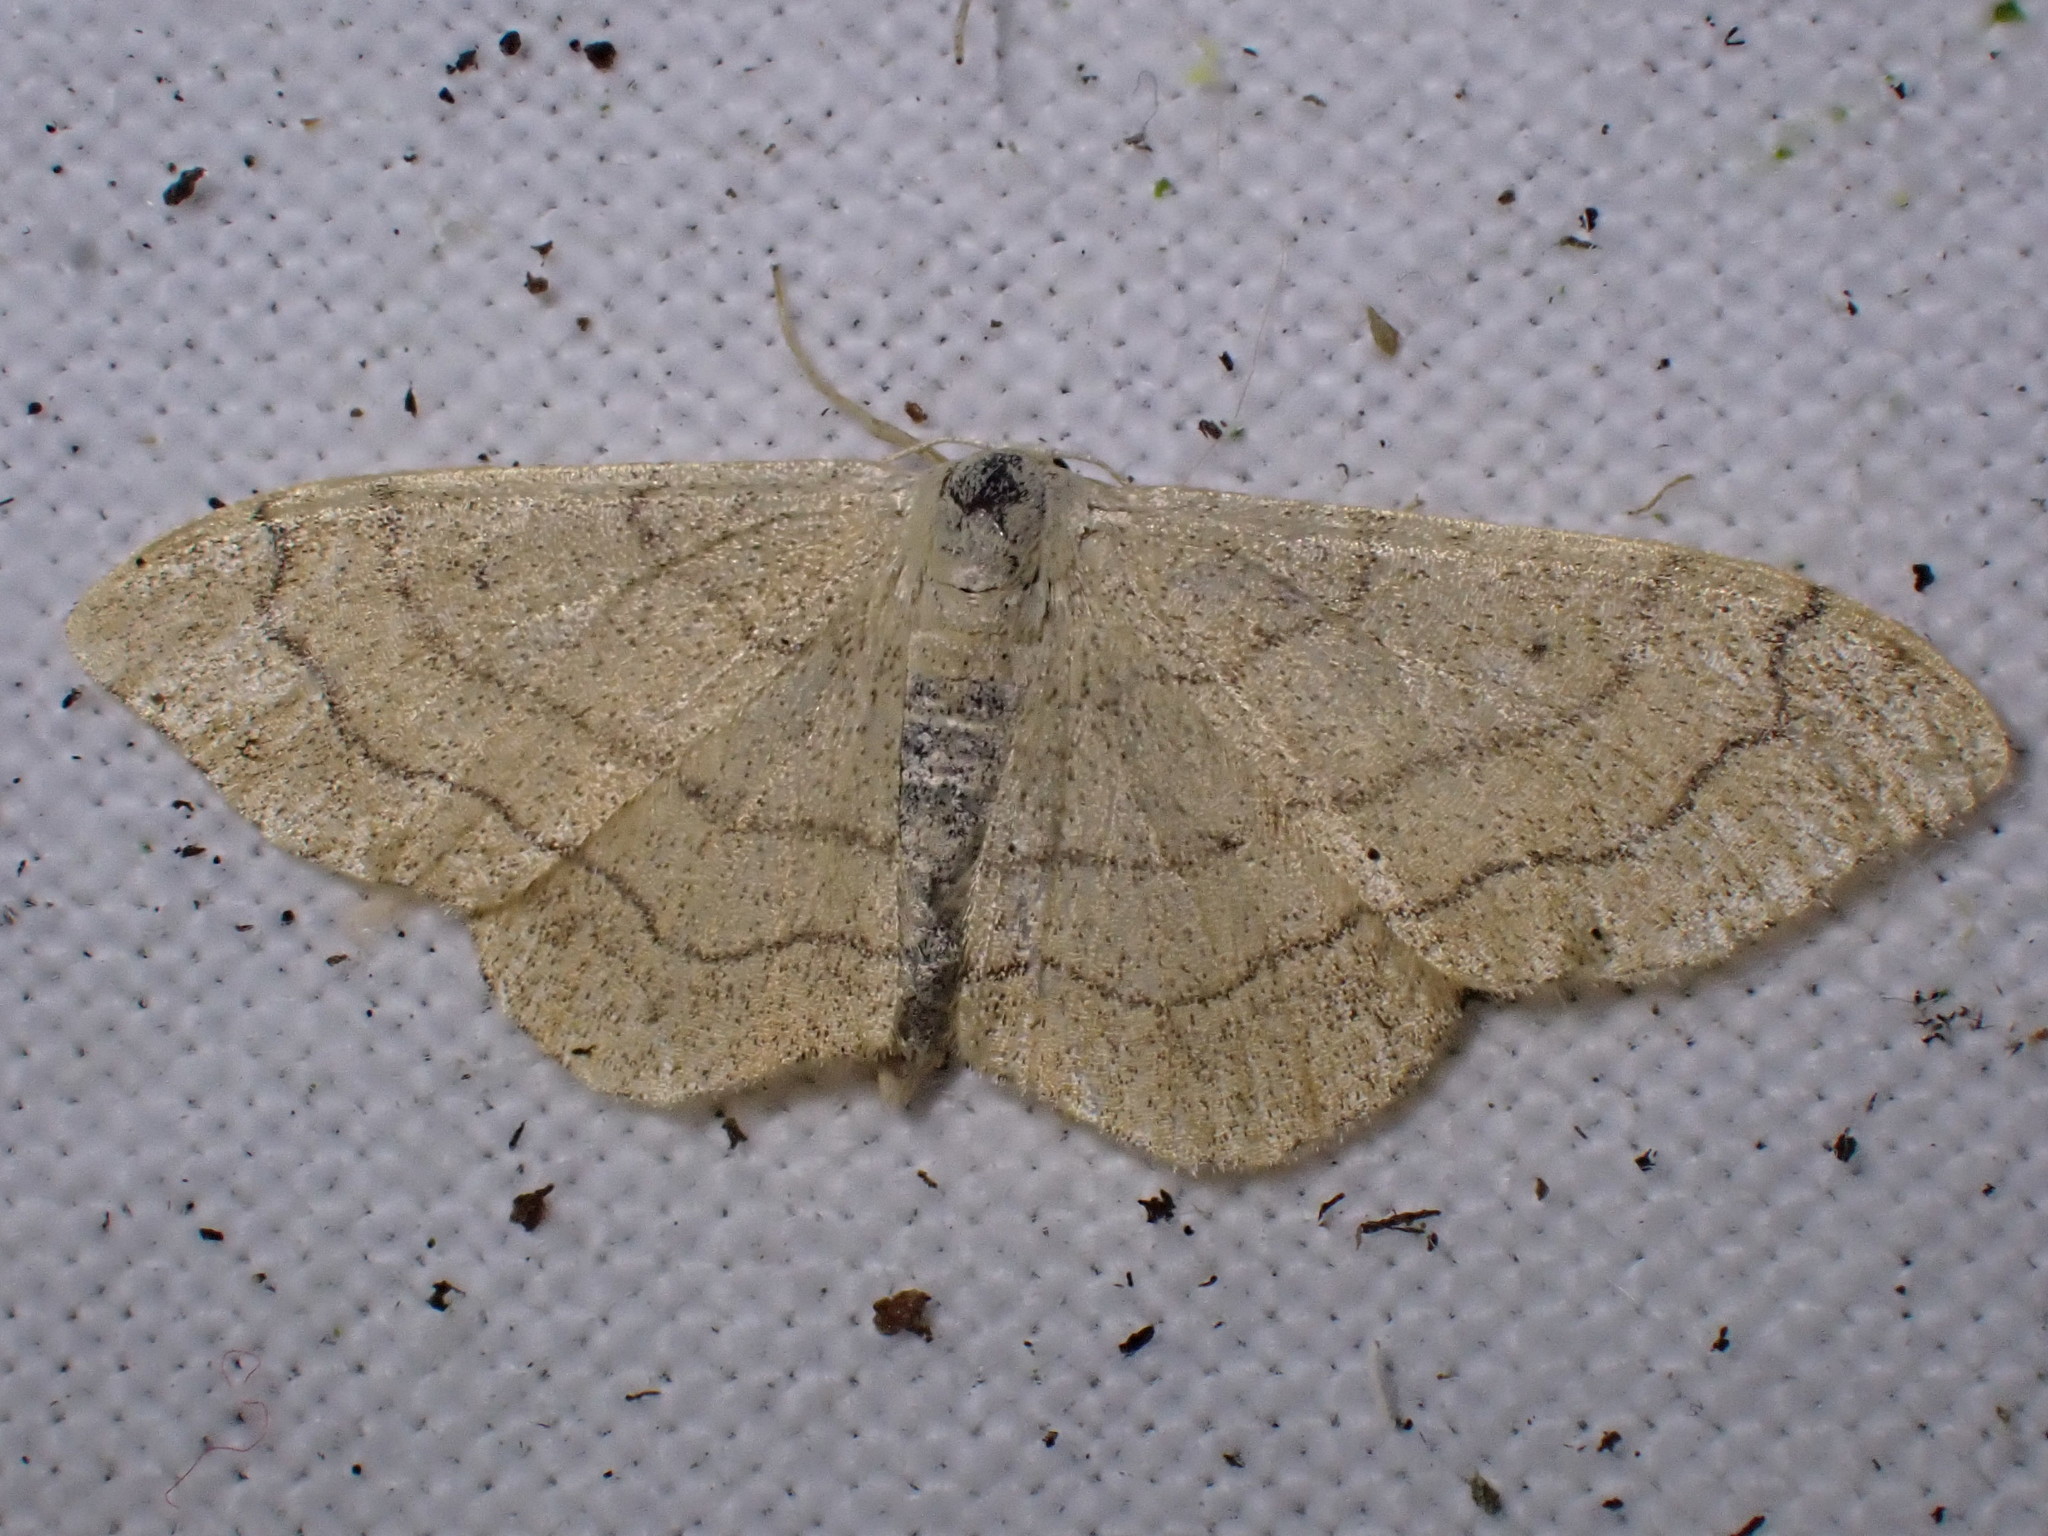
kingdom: Animalia
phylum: Arthropoda
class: Insecta
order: Lepidoptera
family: Geometridae
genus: Idaea
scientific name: Idaea aversata
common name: Riband wave
